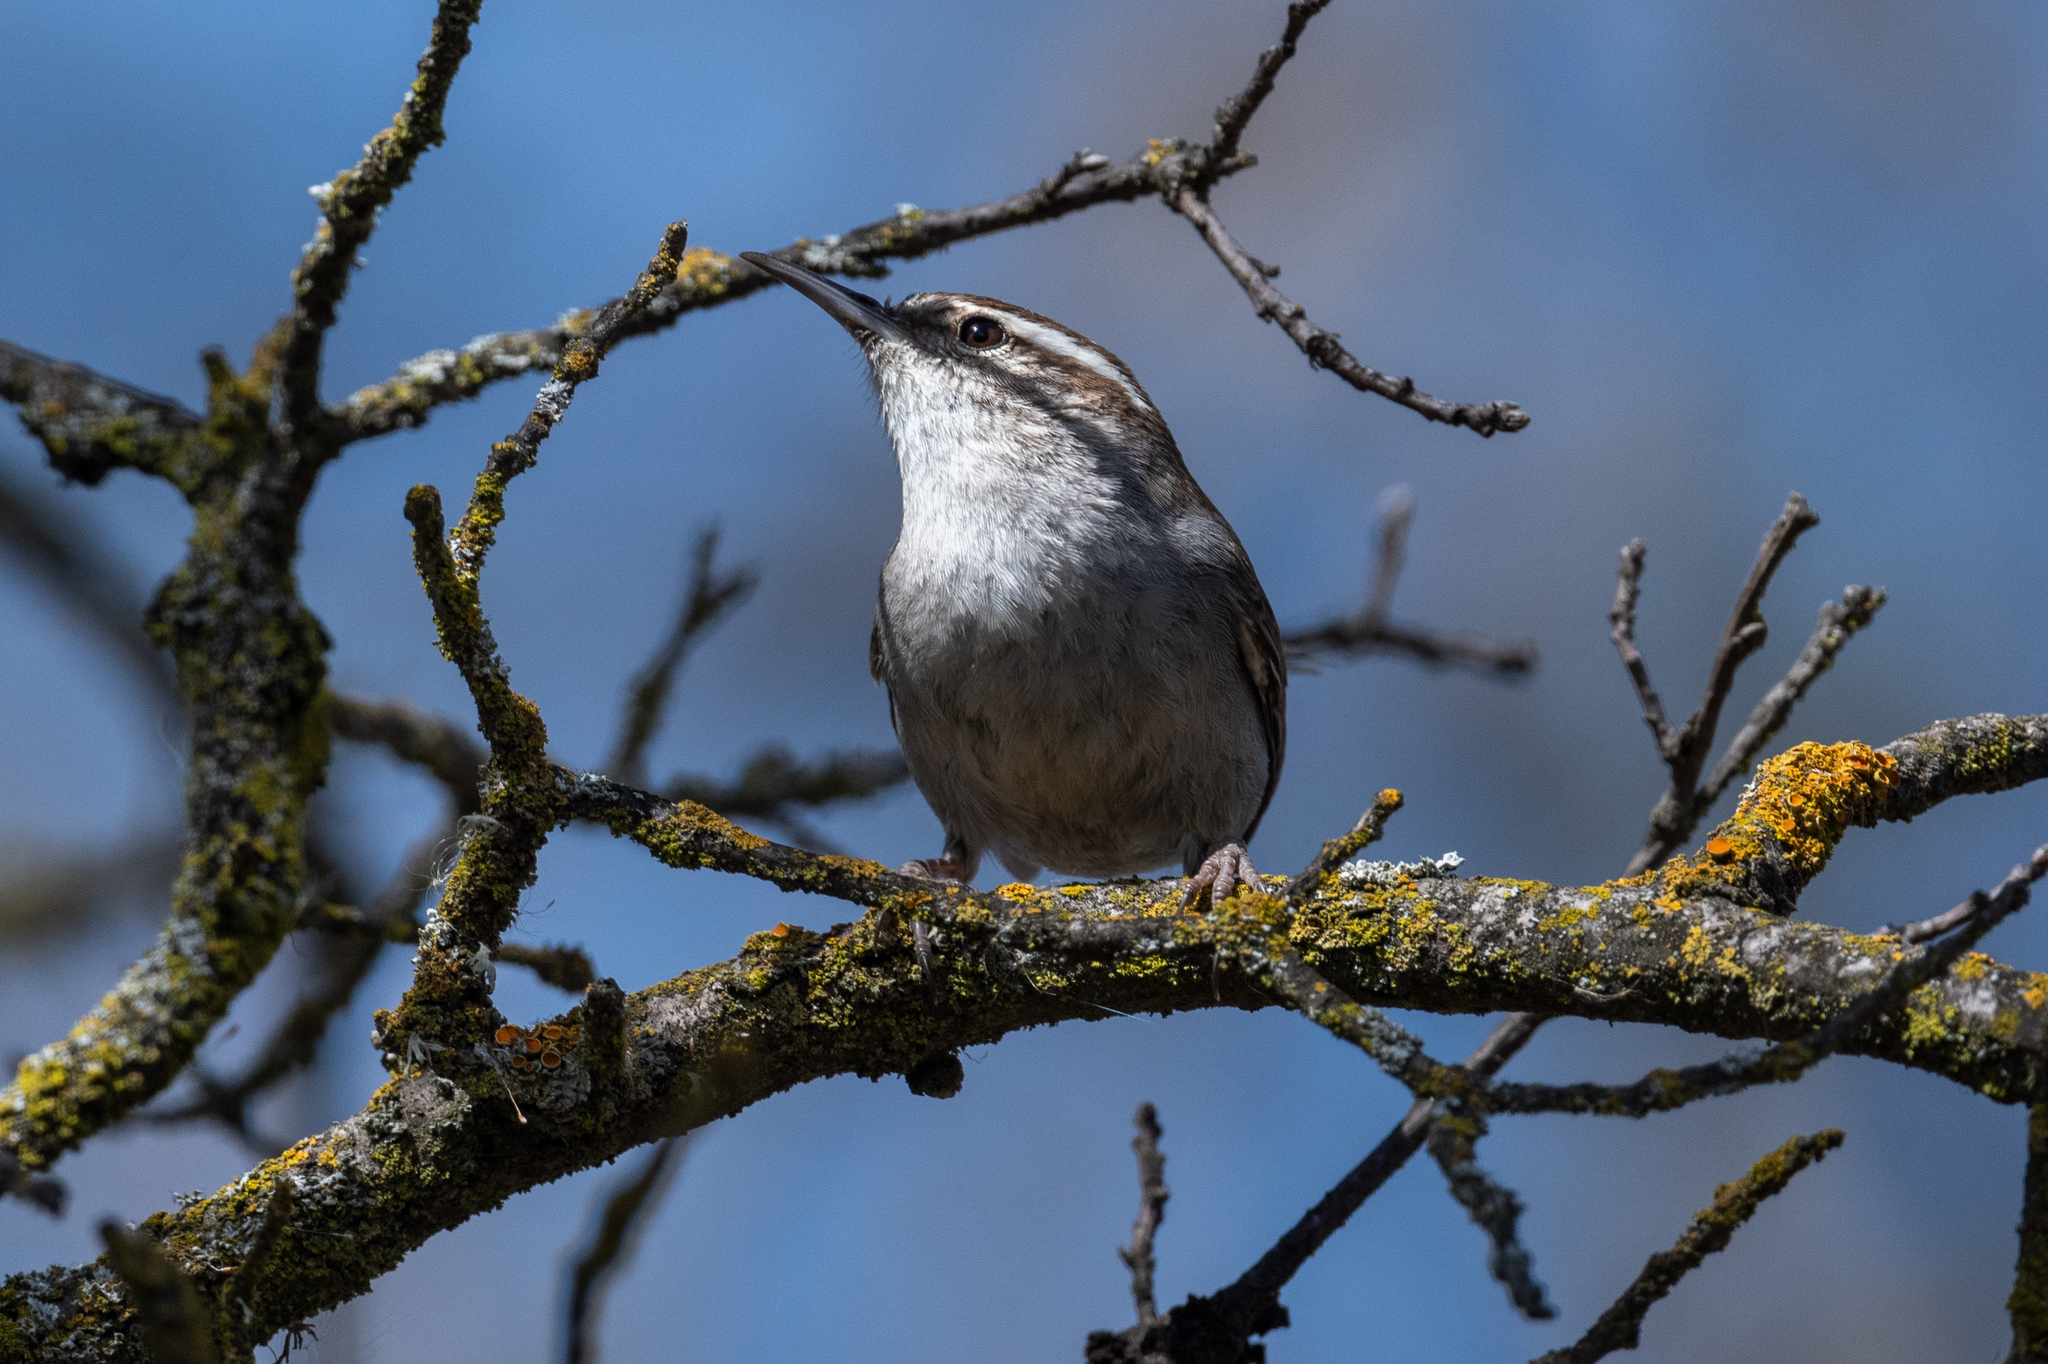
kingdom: Animalia
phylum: Chordata
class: Aves
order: Passeriformes
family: Troglodytidae
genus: Thryomanes
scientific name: Thryomanes bewickii
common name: Bewick's wren
